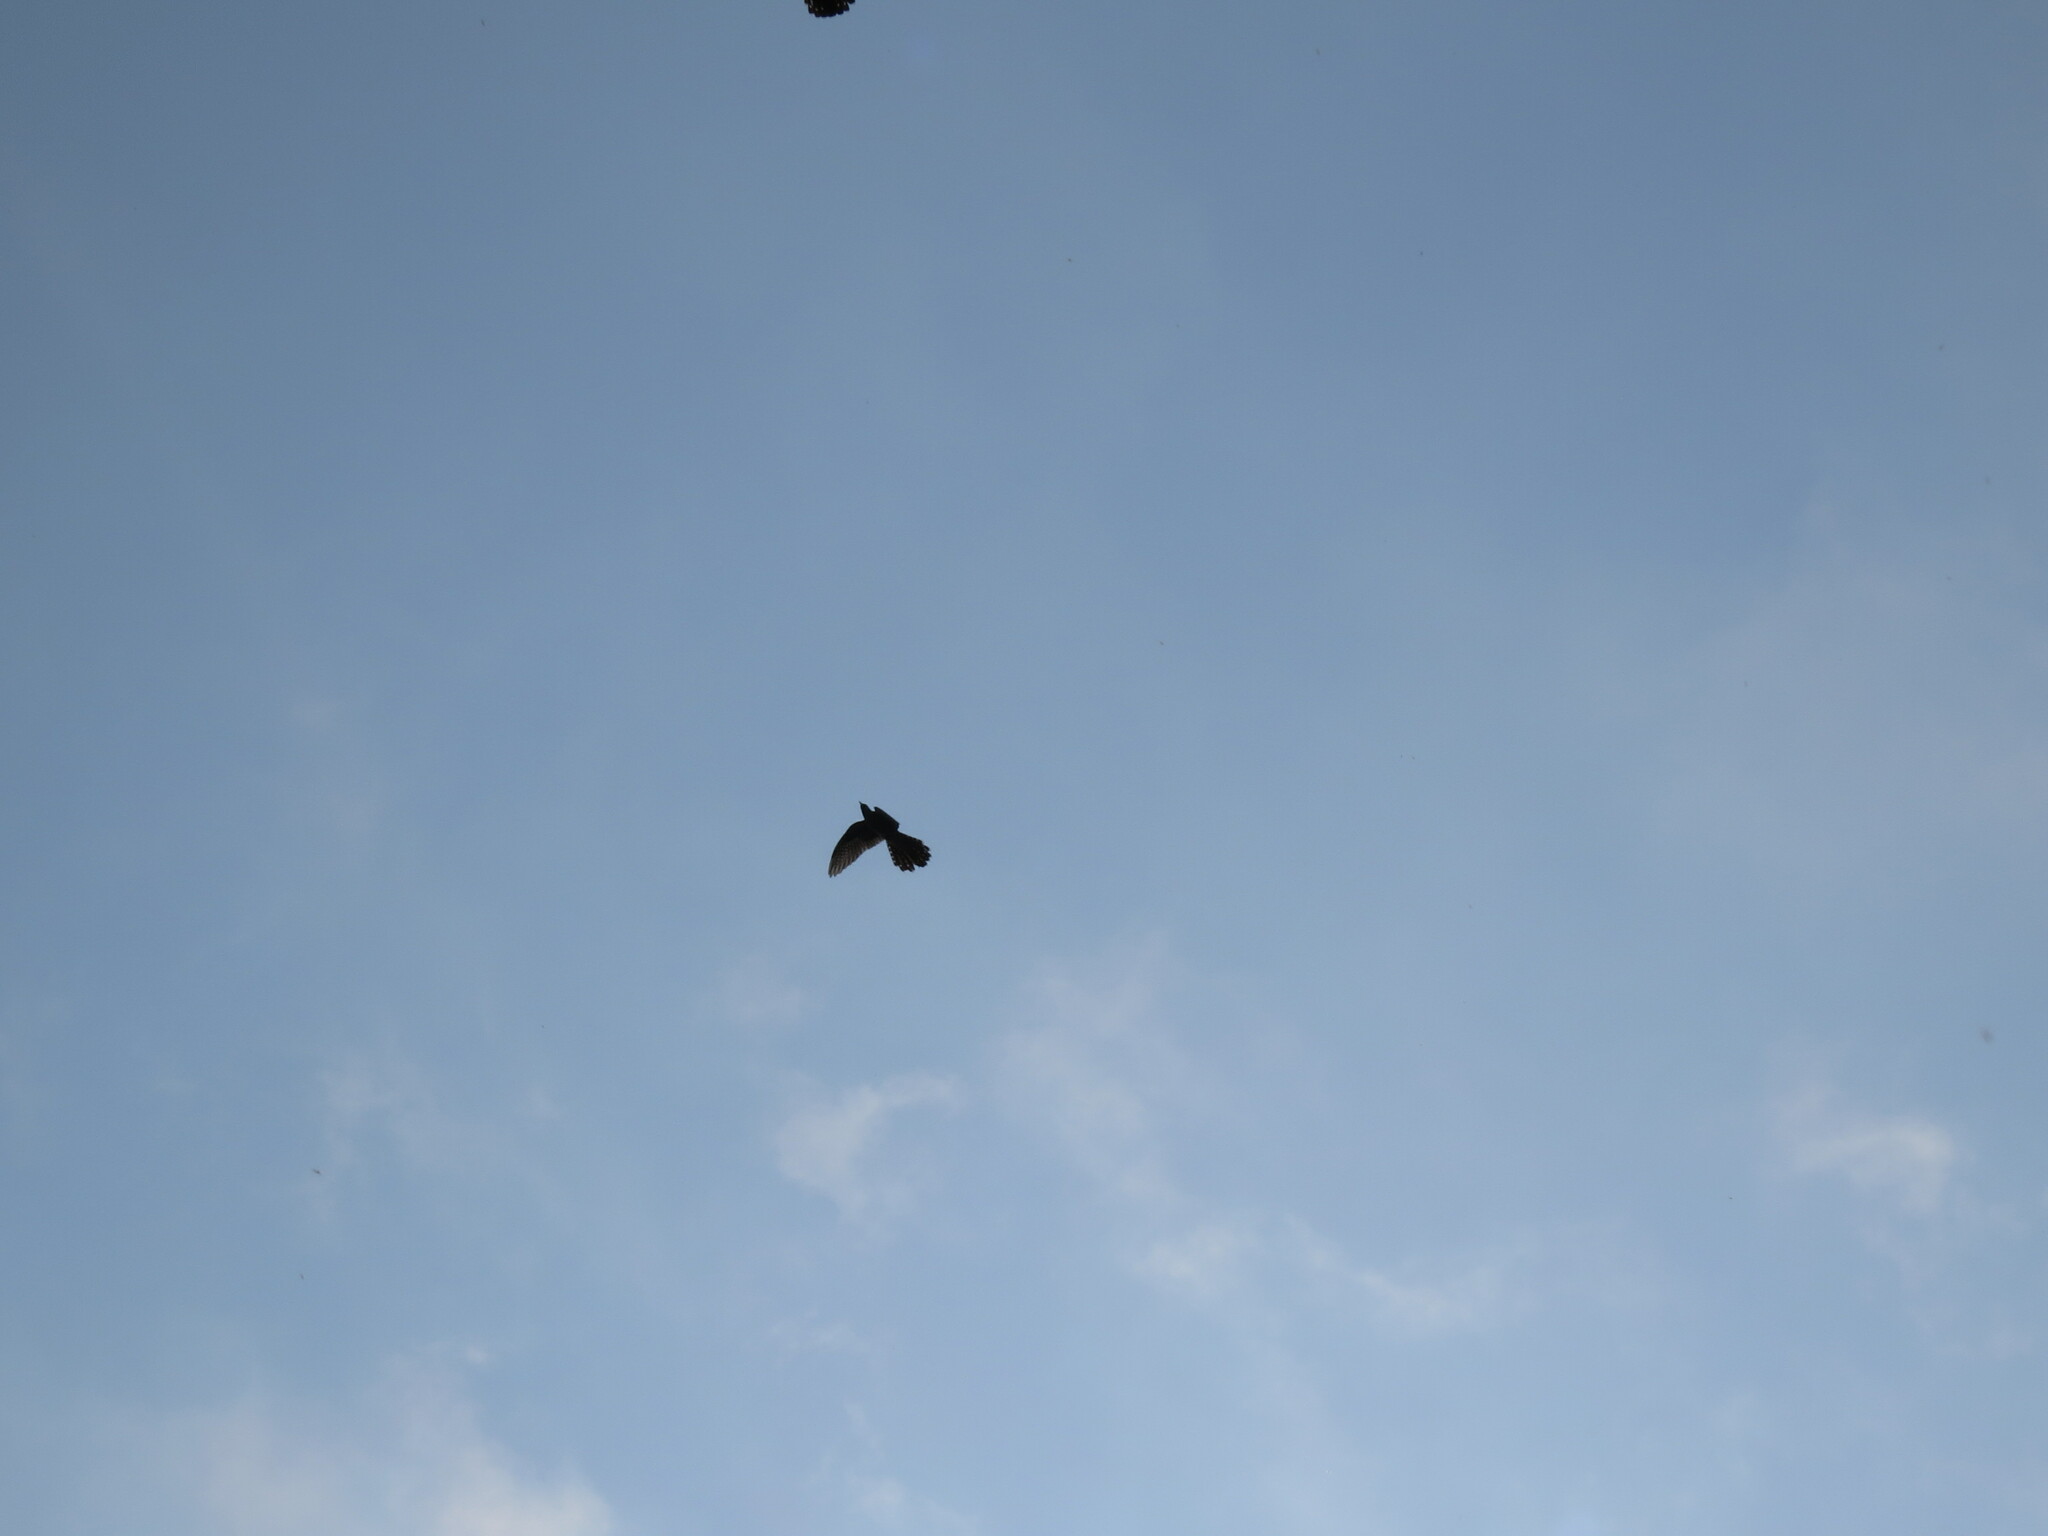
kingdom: Animalia
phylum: Chordata
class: Aves
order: Cuculiformes
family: Cuculidae
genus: Cuculus
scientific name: Cuculus canorus
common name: Common cuckoo
